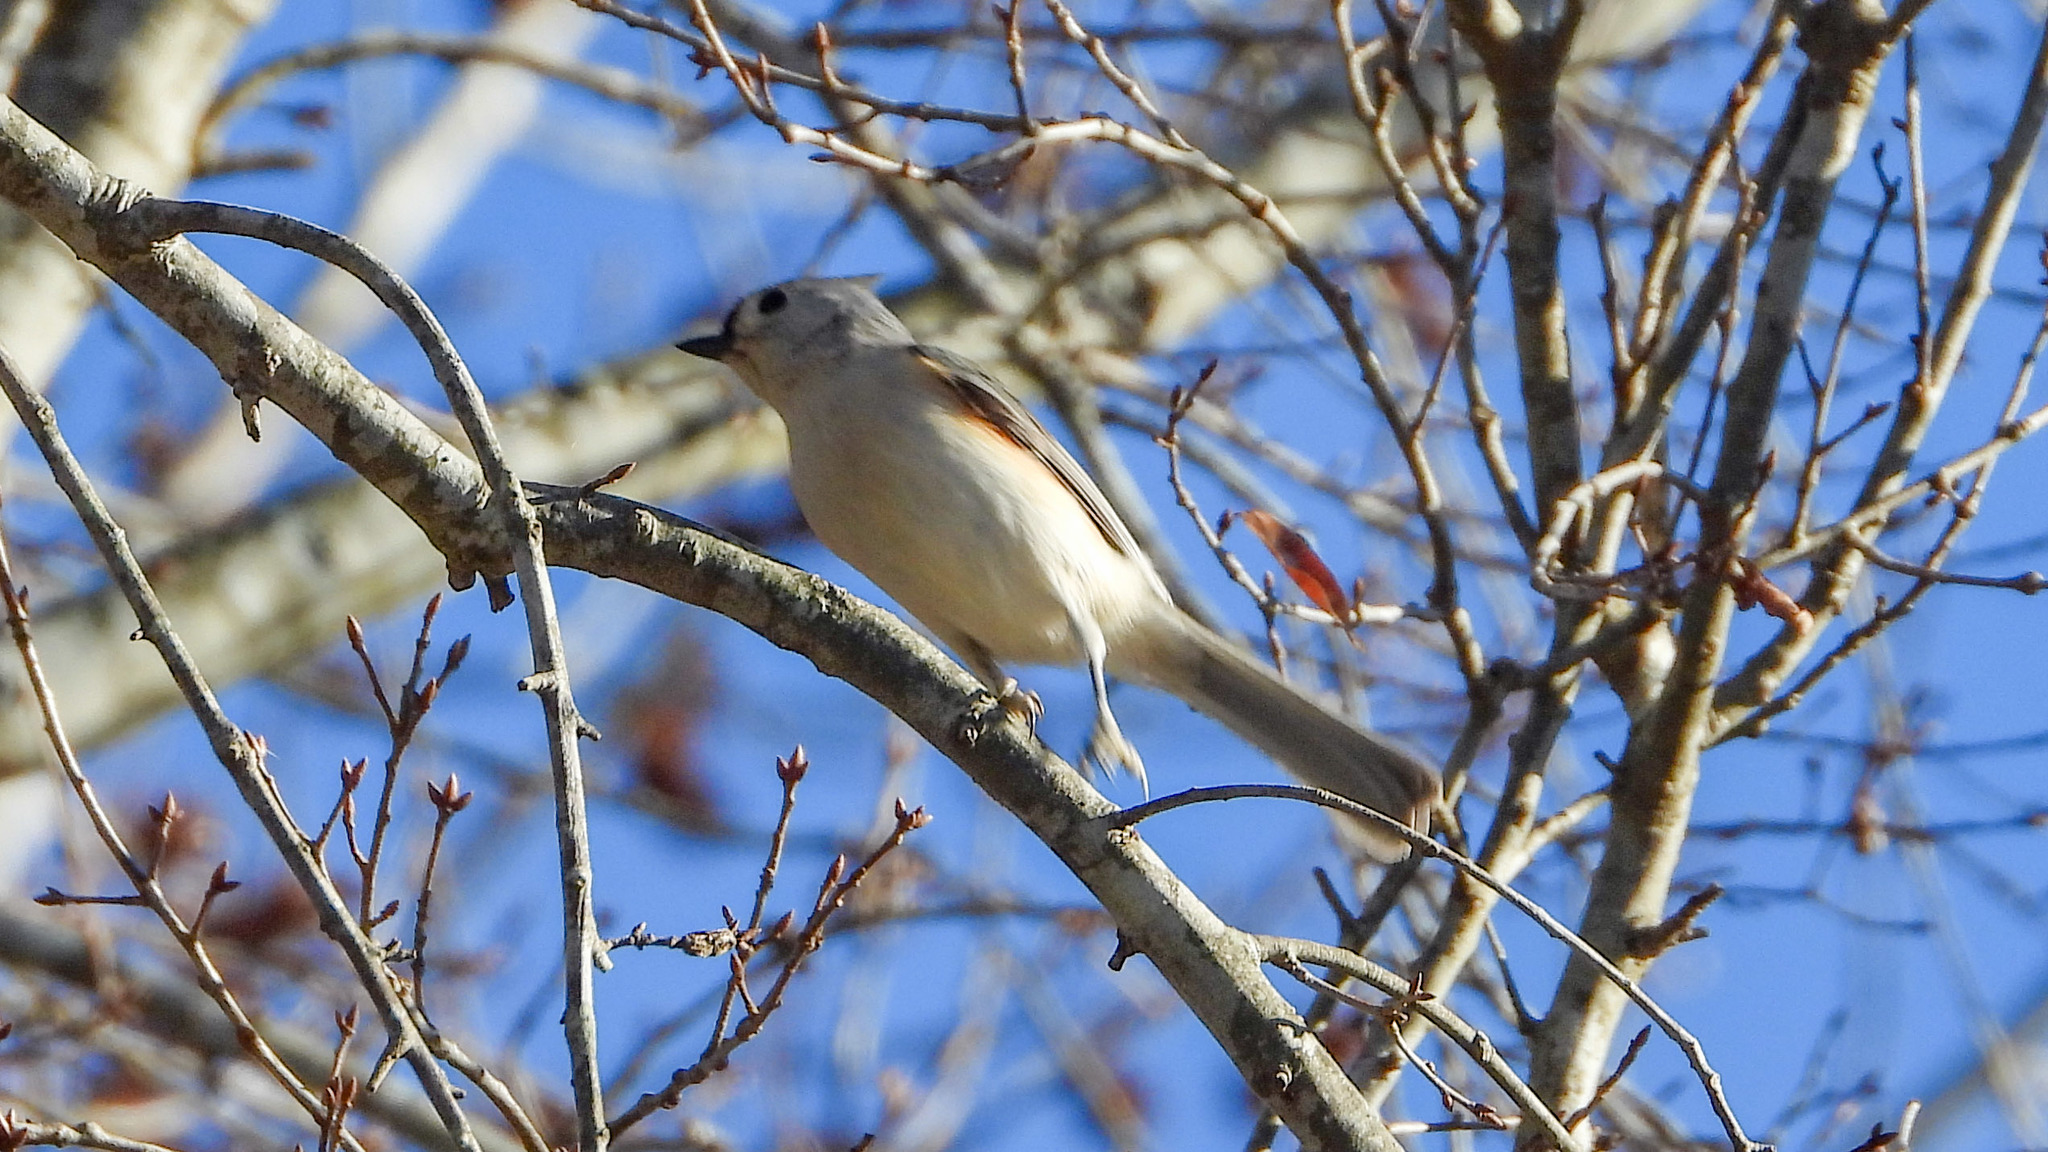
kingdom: Animalia
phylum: Chordata
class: Aves
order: Passeriformes
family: Paridae
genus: Baeolophus
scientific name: Baeolophus bicolor
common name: Tufted titmouse
